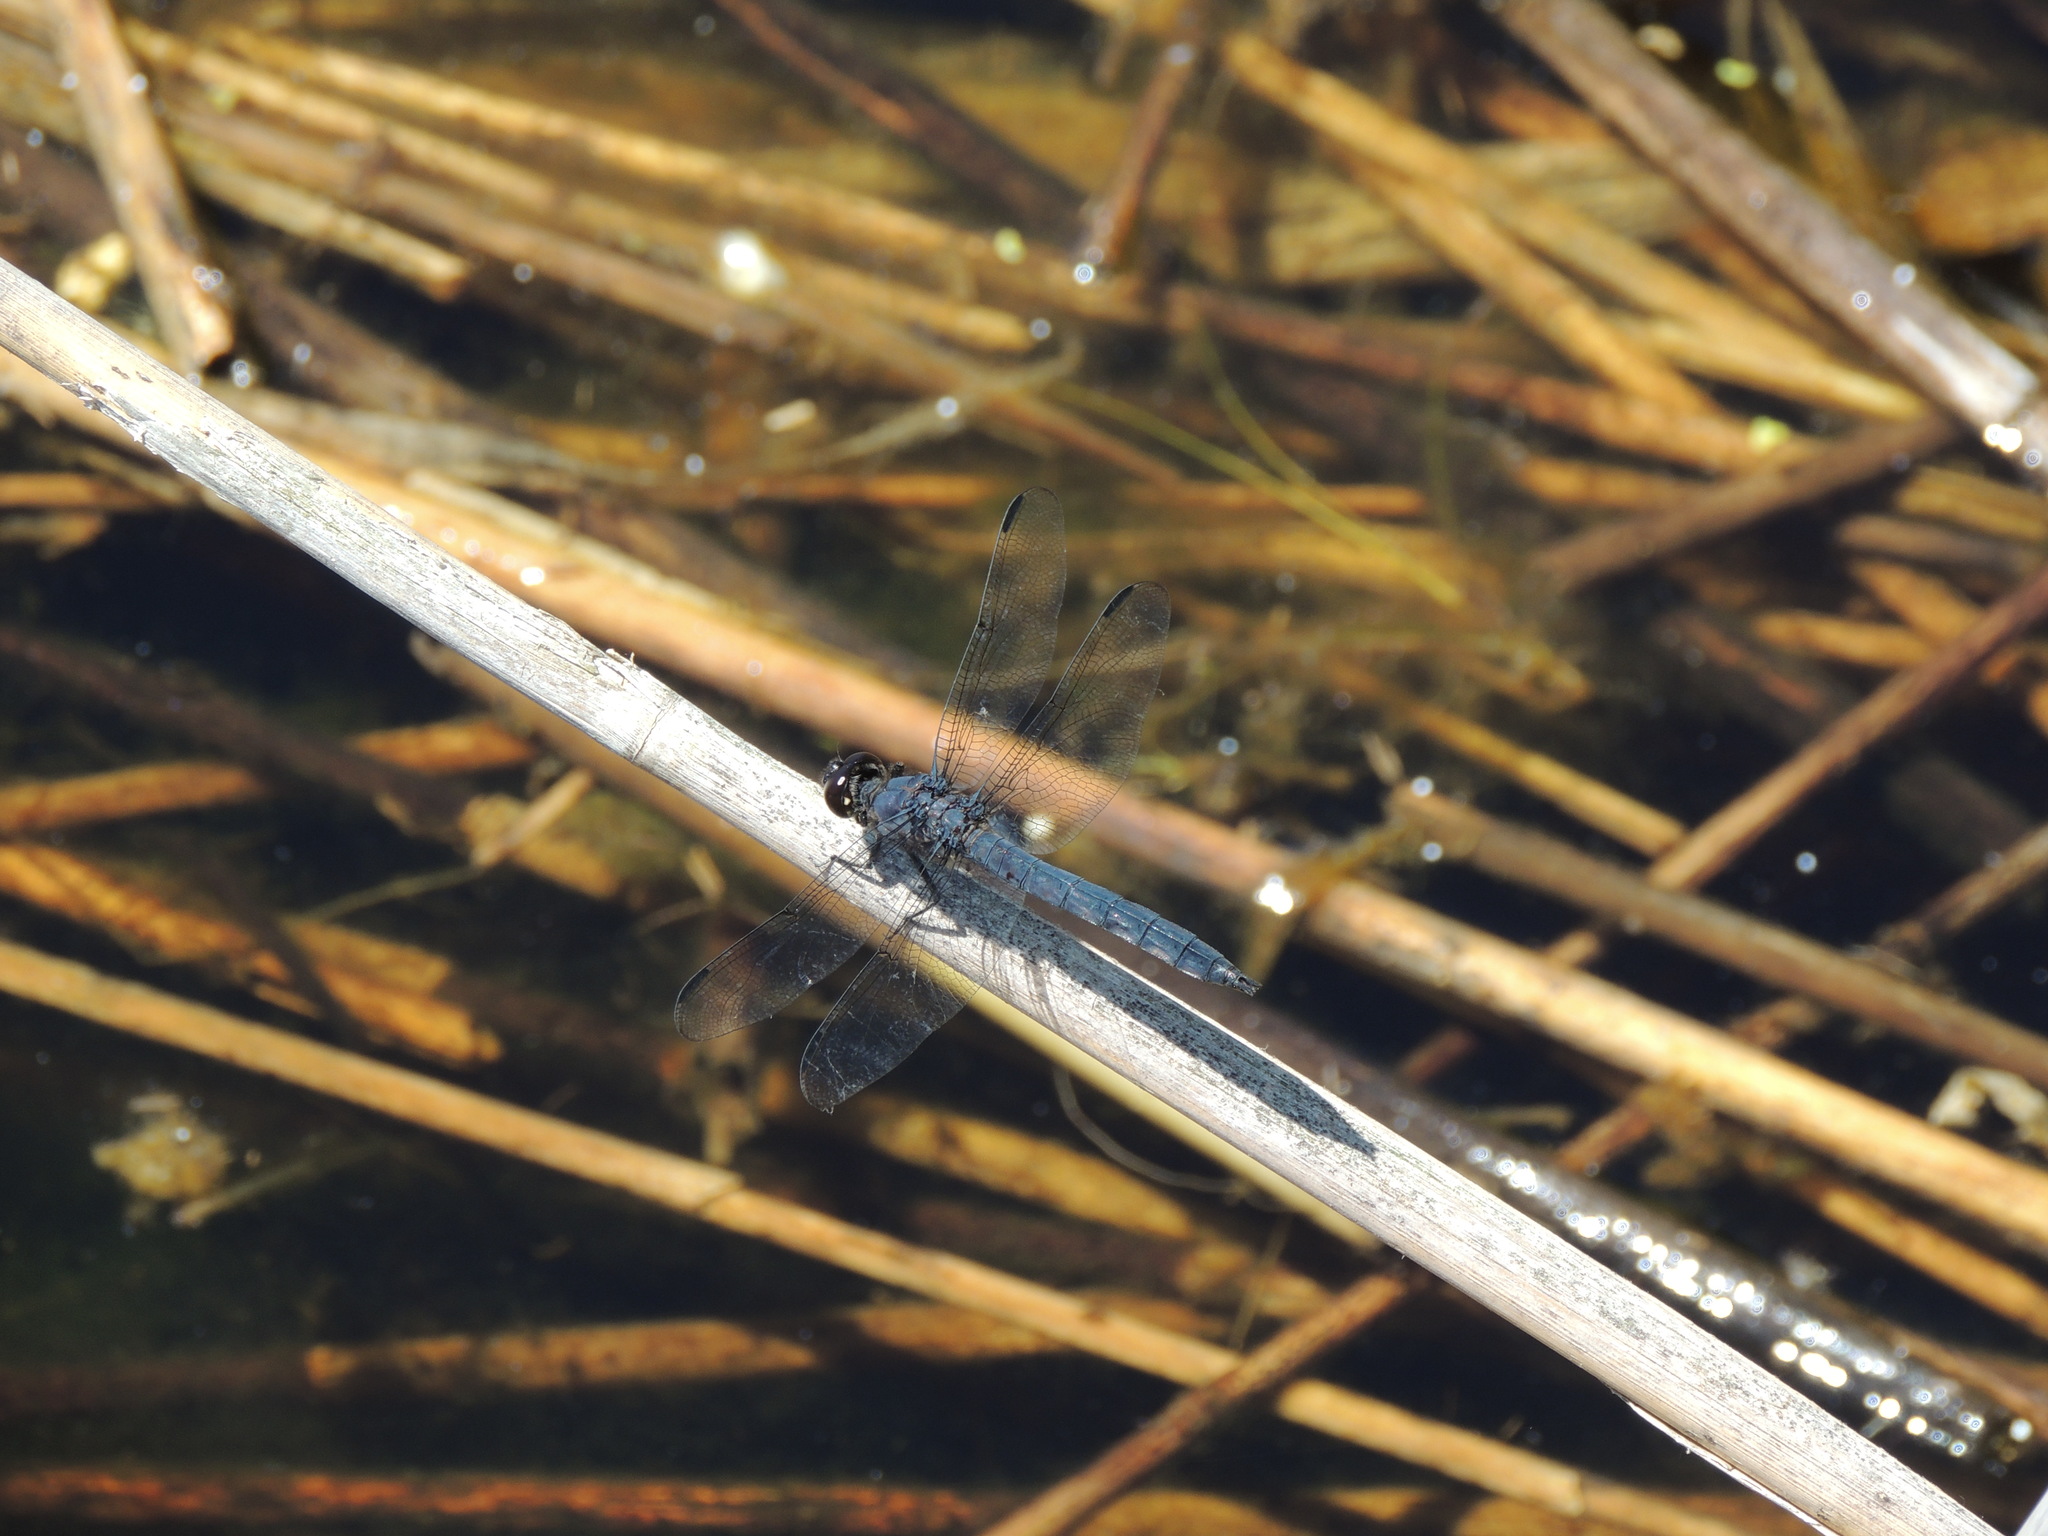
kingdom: Animalia
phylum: Arthropoda
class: Insecta
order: Odonata
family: Libellulidae
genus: Libellula
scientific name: Libellula incesta
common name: Slaty skimmer
